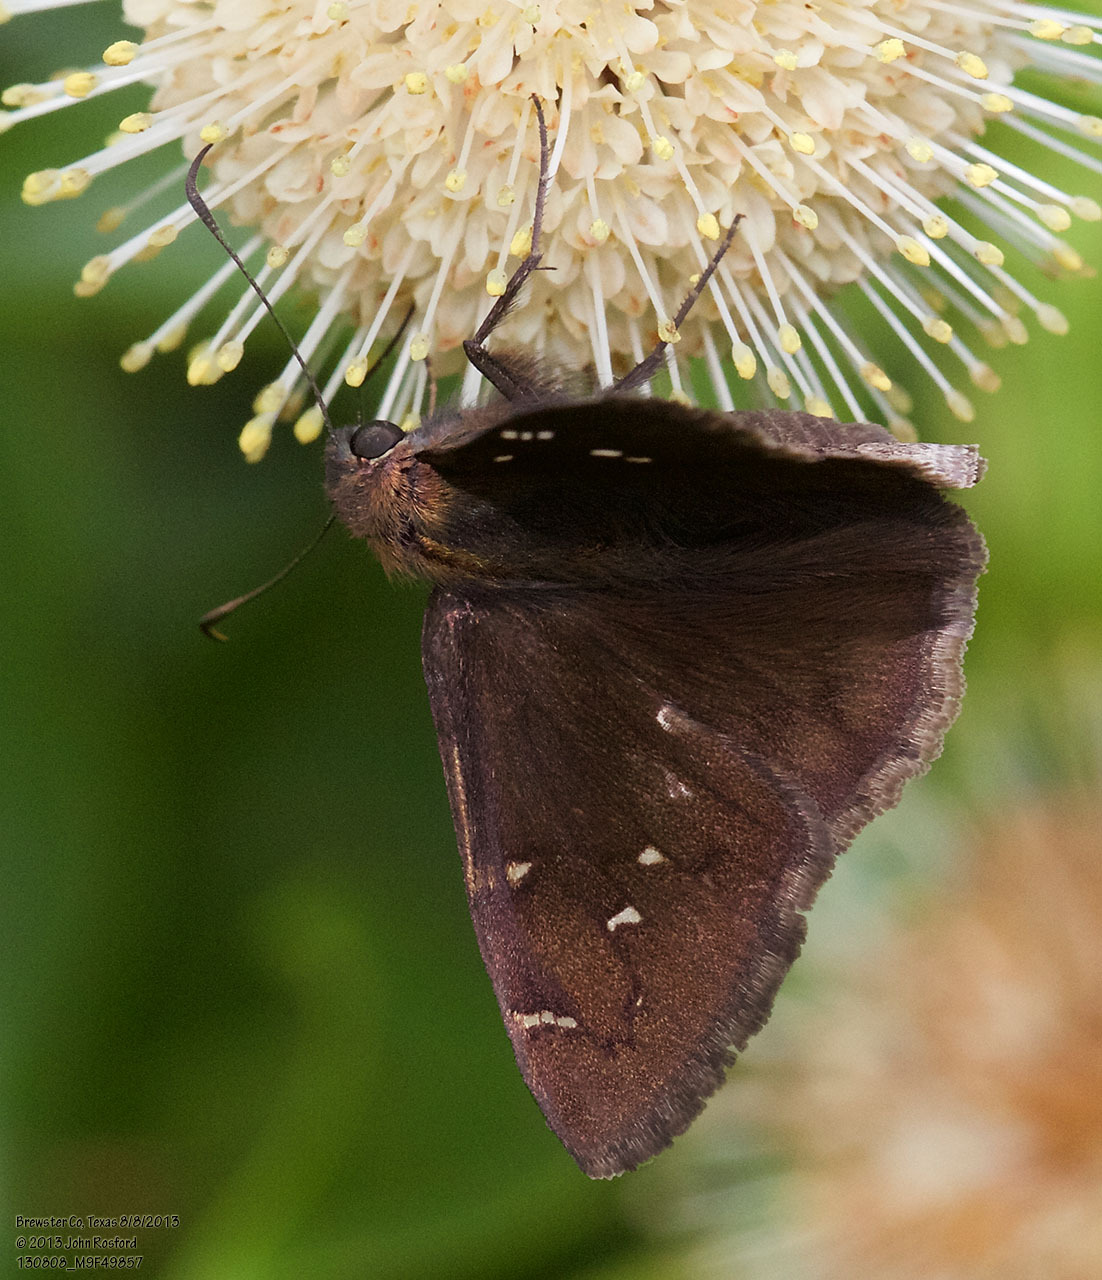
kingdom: Animalia
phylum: Arthropoda
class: Insecta
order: Lepidoptera
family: Hesperiidae
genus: Thorybes
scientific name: Thorybes pylades
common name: Northern cloudywing
